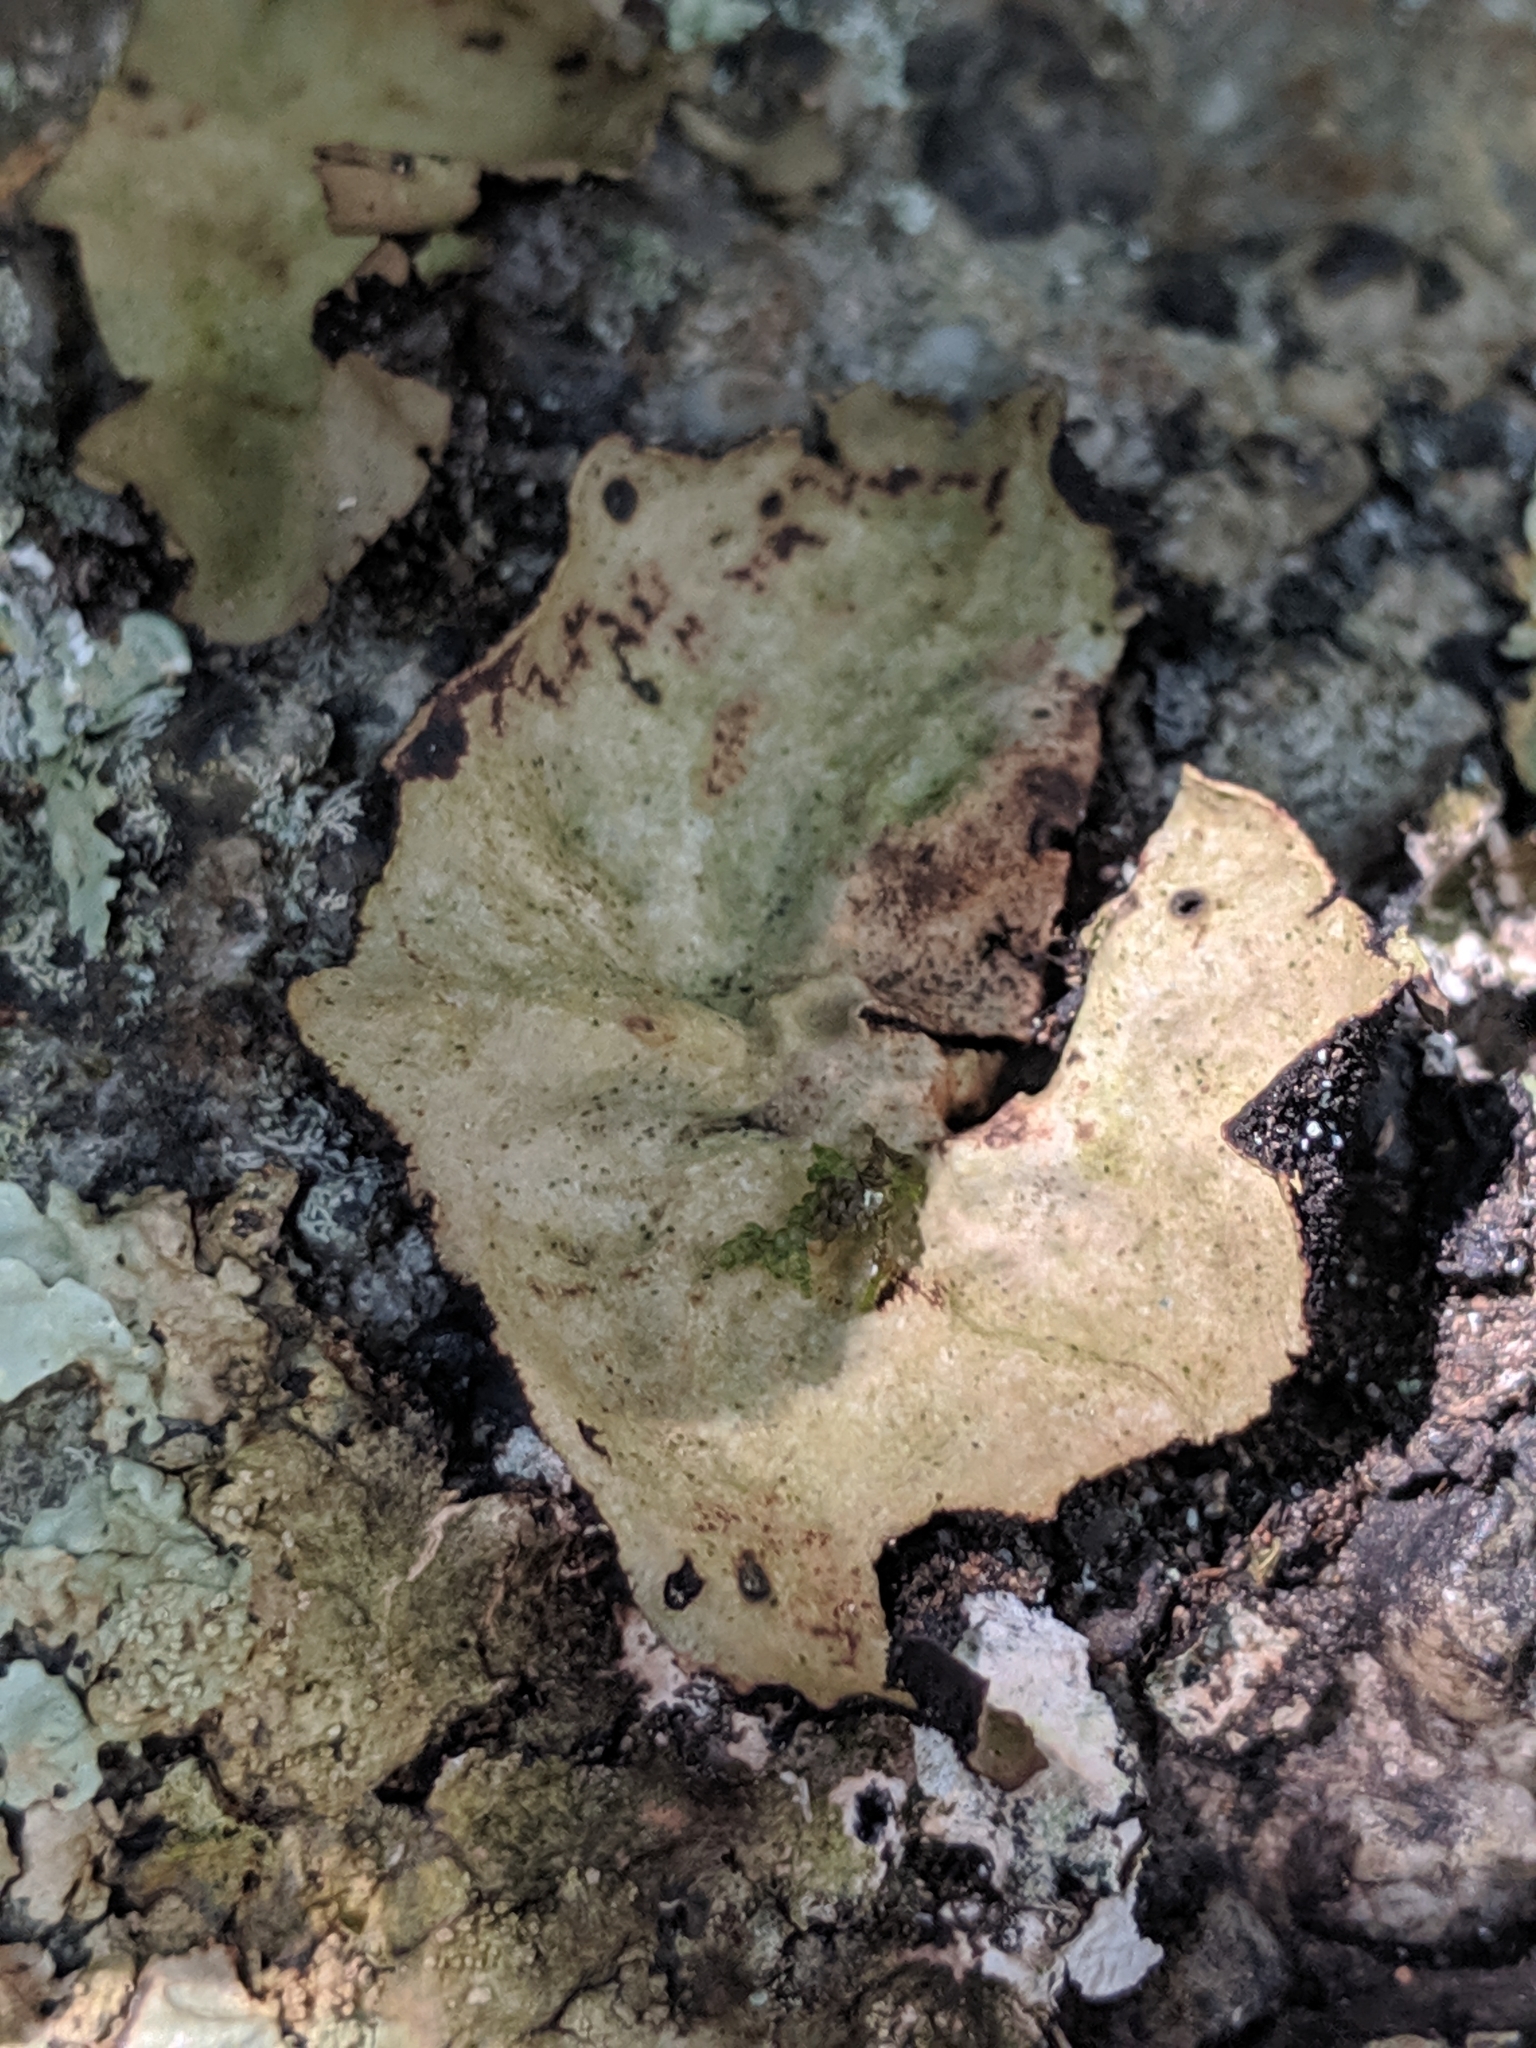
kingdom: Fungi
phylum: Ascomycota
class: Lecanoromycetes
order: Umbilicariales
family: Umbilicariaceae
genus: Umbilicaria
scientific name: Umbilicaria mammulata
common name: Smooth rock tripe
